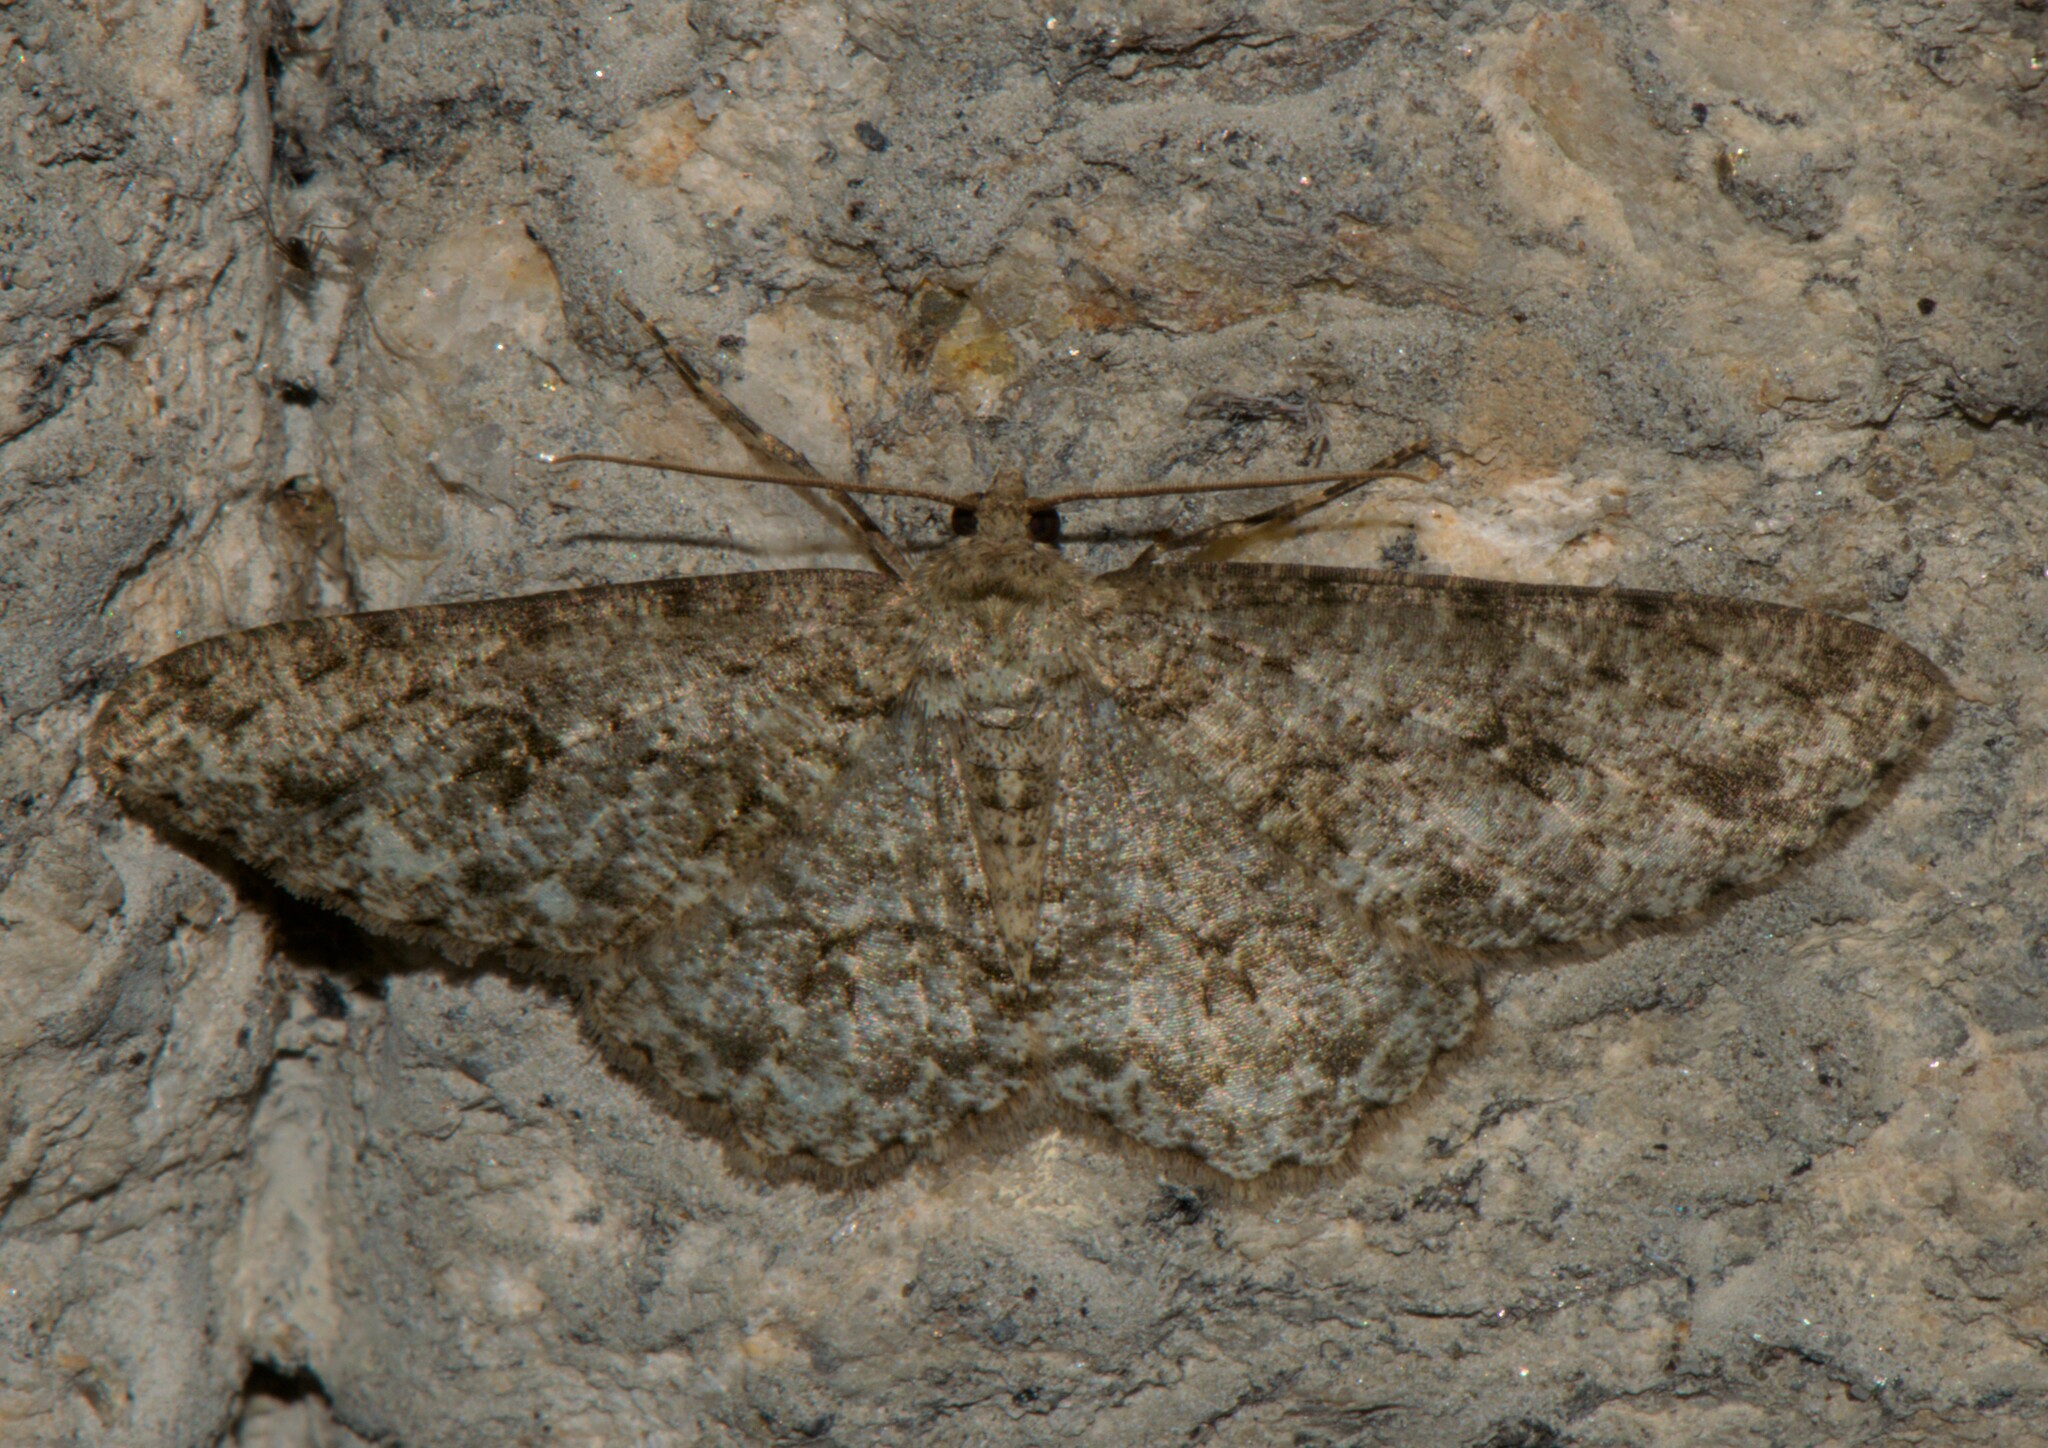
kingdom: Animalia
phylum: Arthropoda
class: Insecta
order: Lepidoptera
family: Geometridae
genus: Ectropis
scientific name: Ectropis crepuscularia
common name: Engrailed
